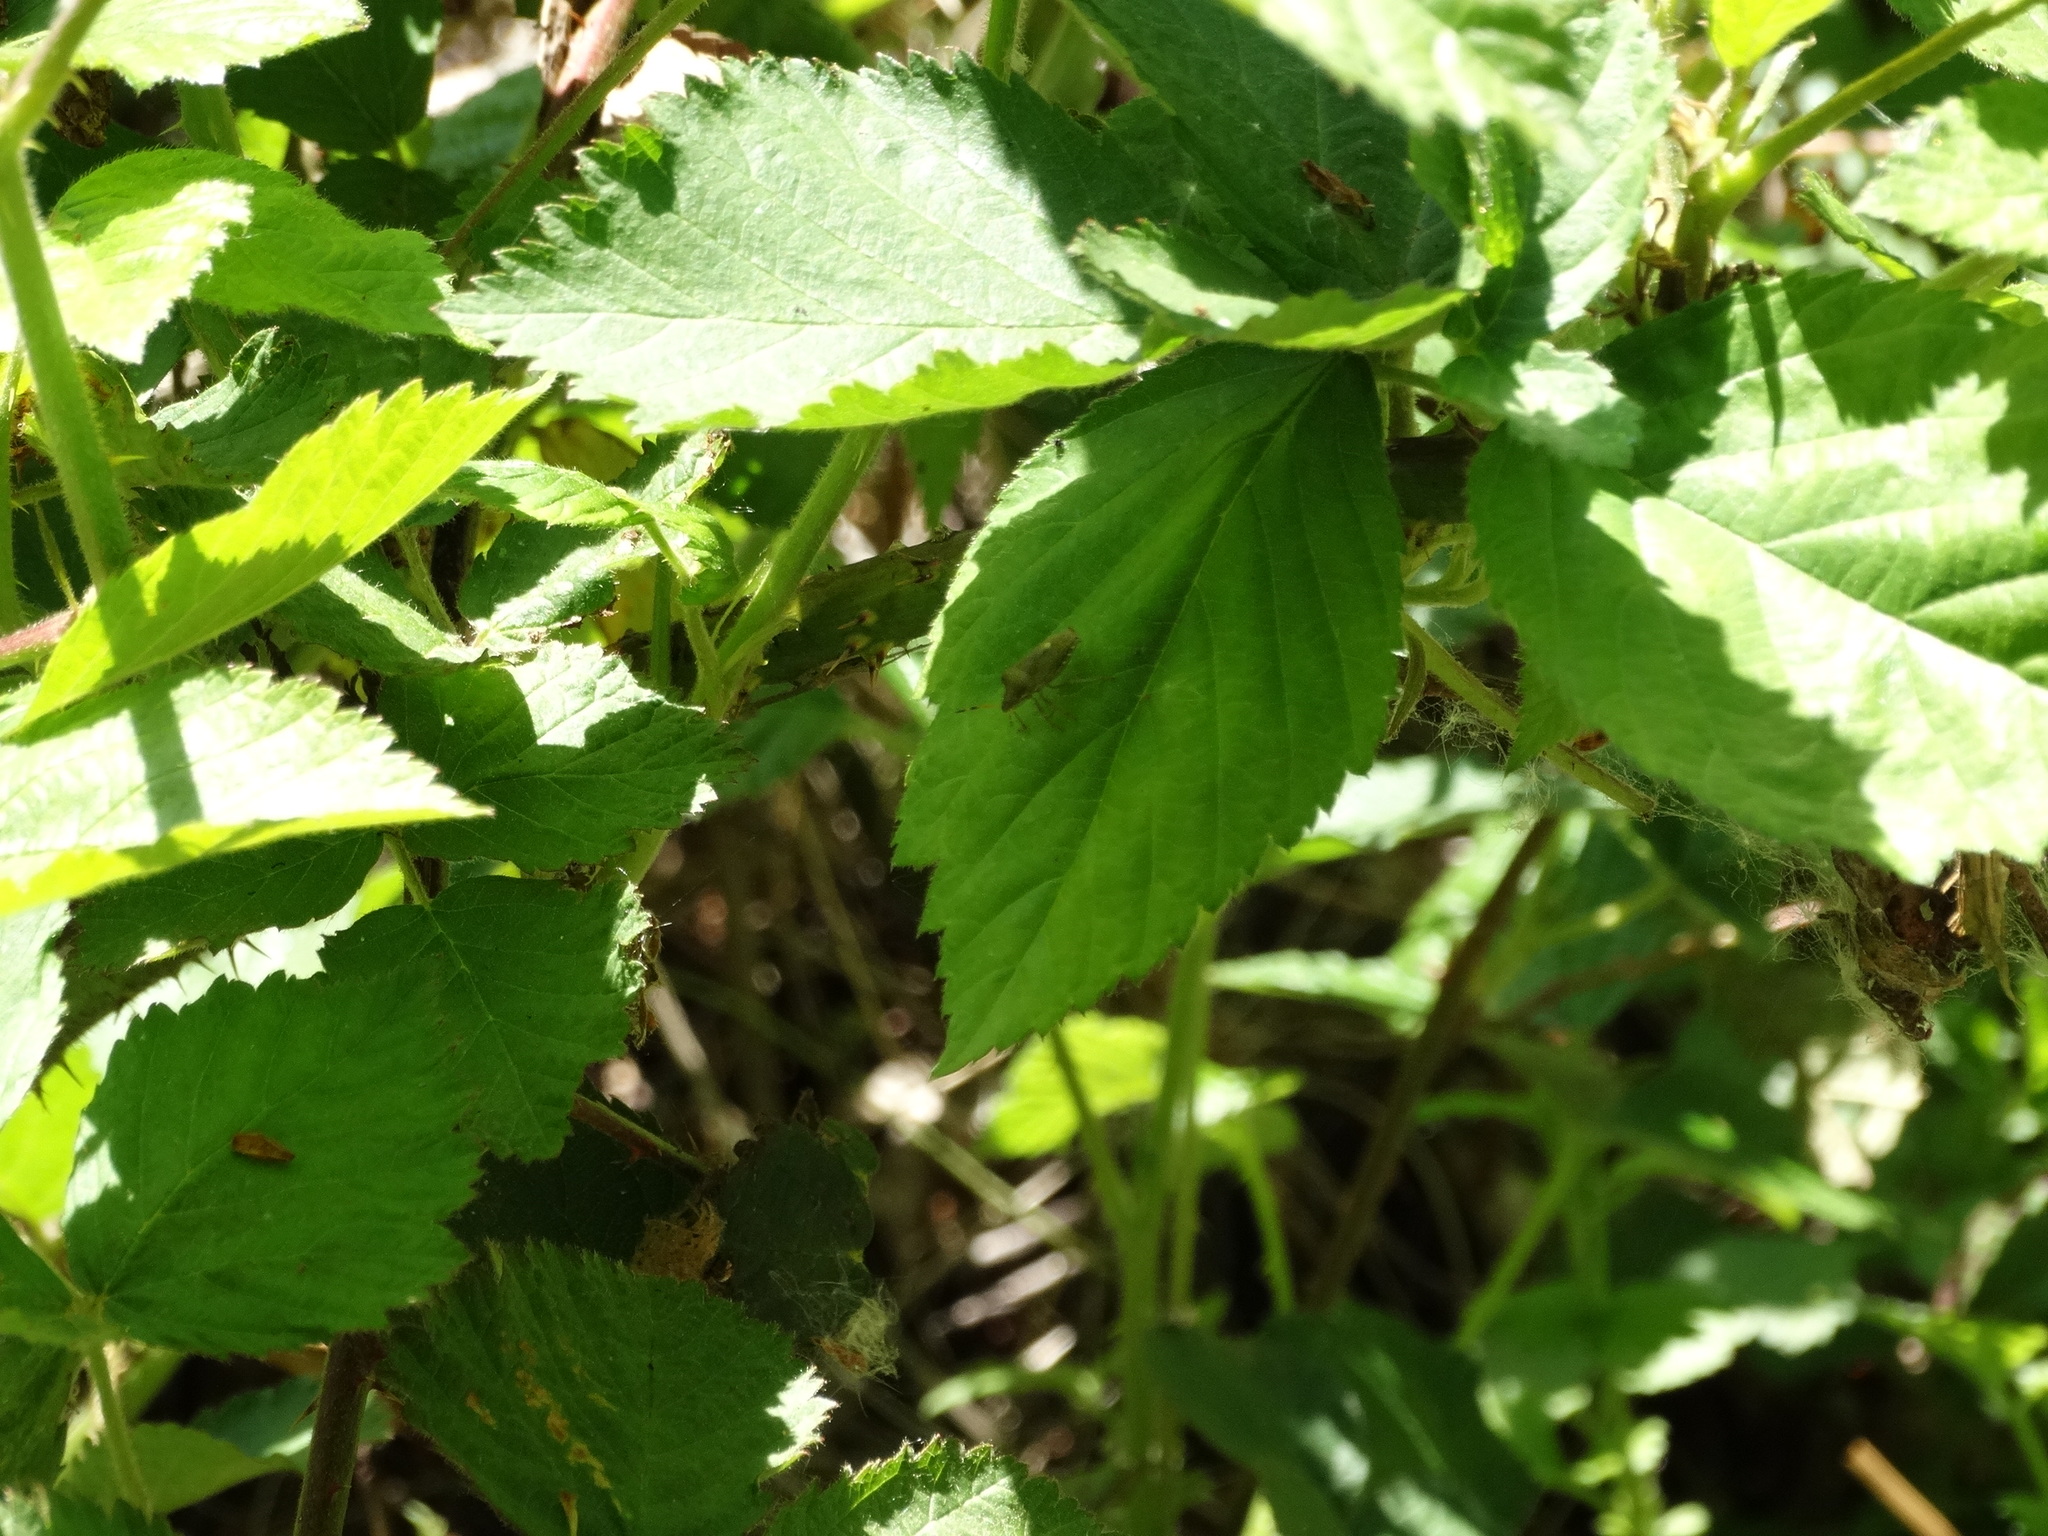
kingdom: Animalia
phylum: Arthropoda
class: Insecta
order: Hemiptera
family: Pentatomidae
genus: Holcostethus
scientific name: Holcostethus strictus
